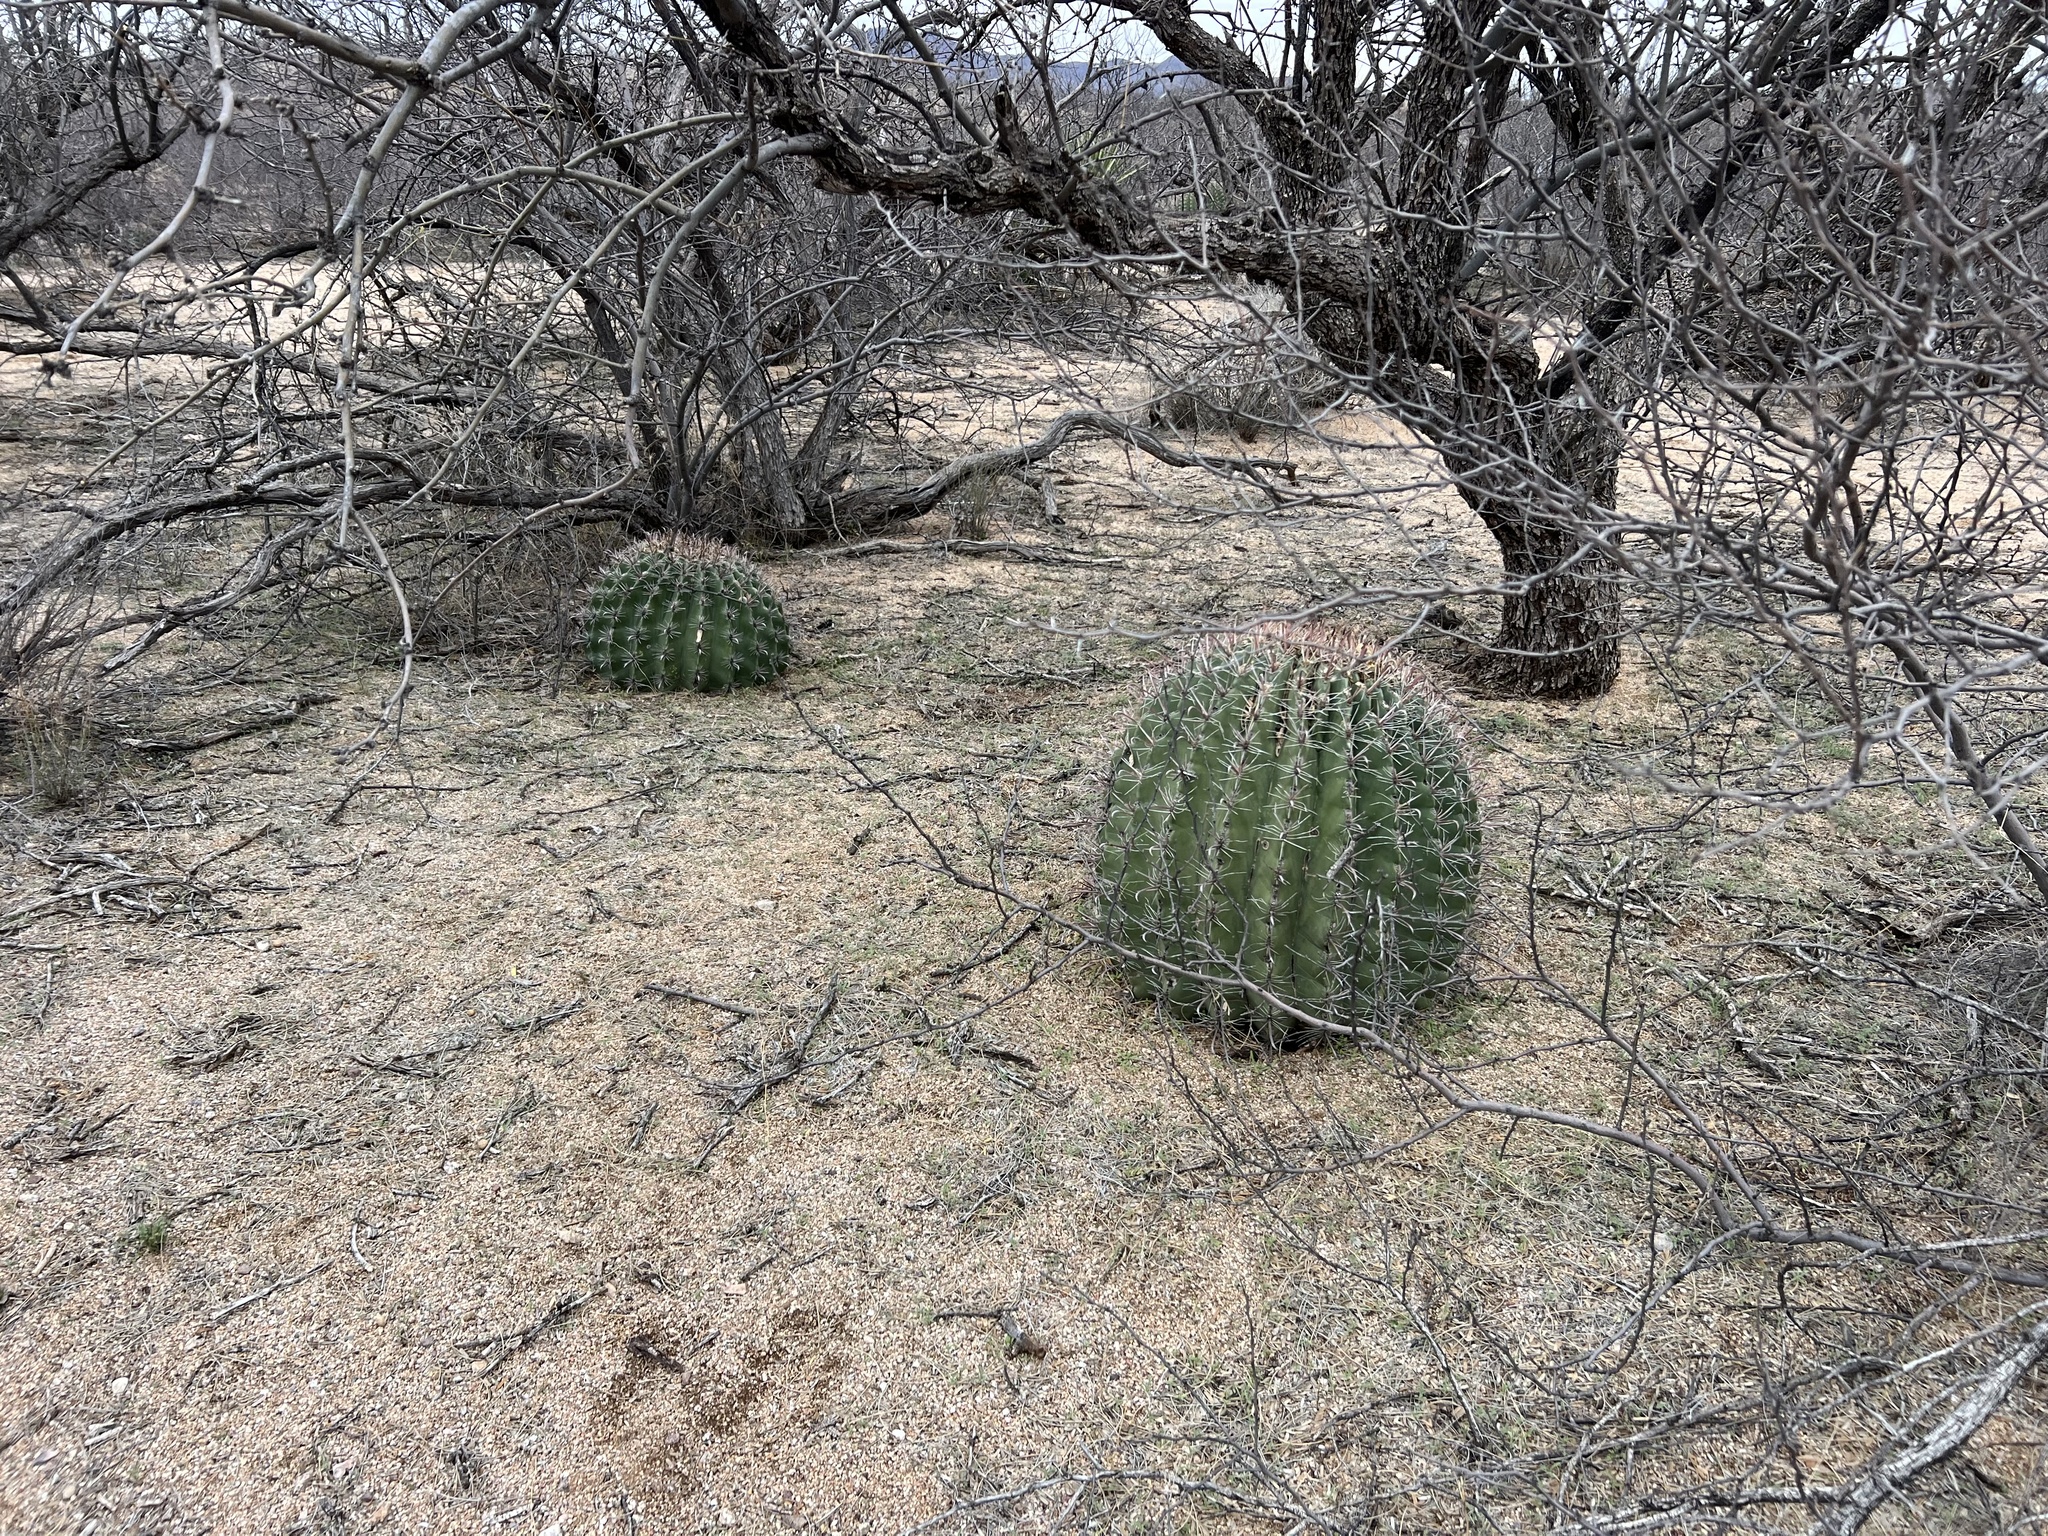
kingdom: Plantae
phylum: Tracheophyta
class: Magnoliopsida
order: Caryophyllales
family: Cactaceae
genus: Ferocactus
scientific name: Ferocactus wislizeni
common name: Candy barrel cactus
